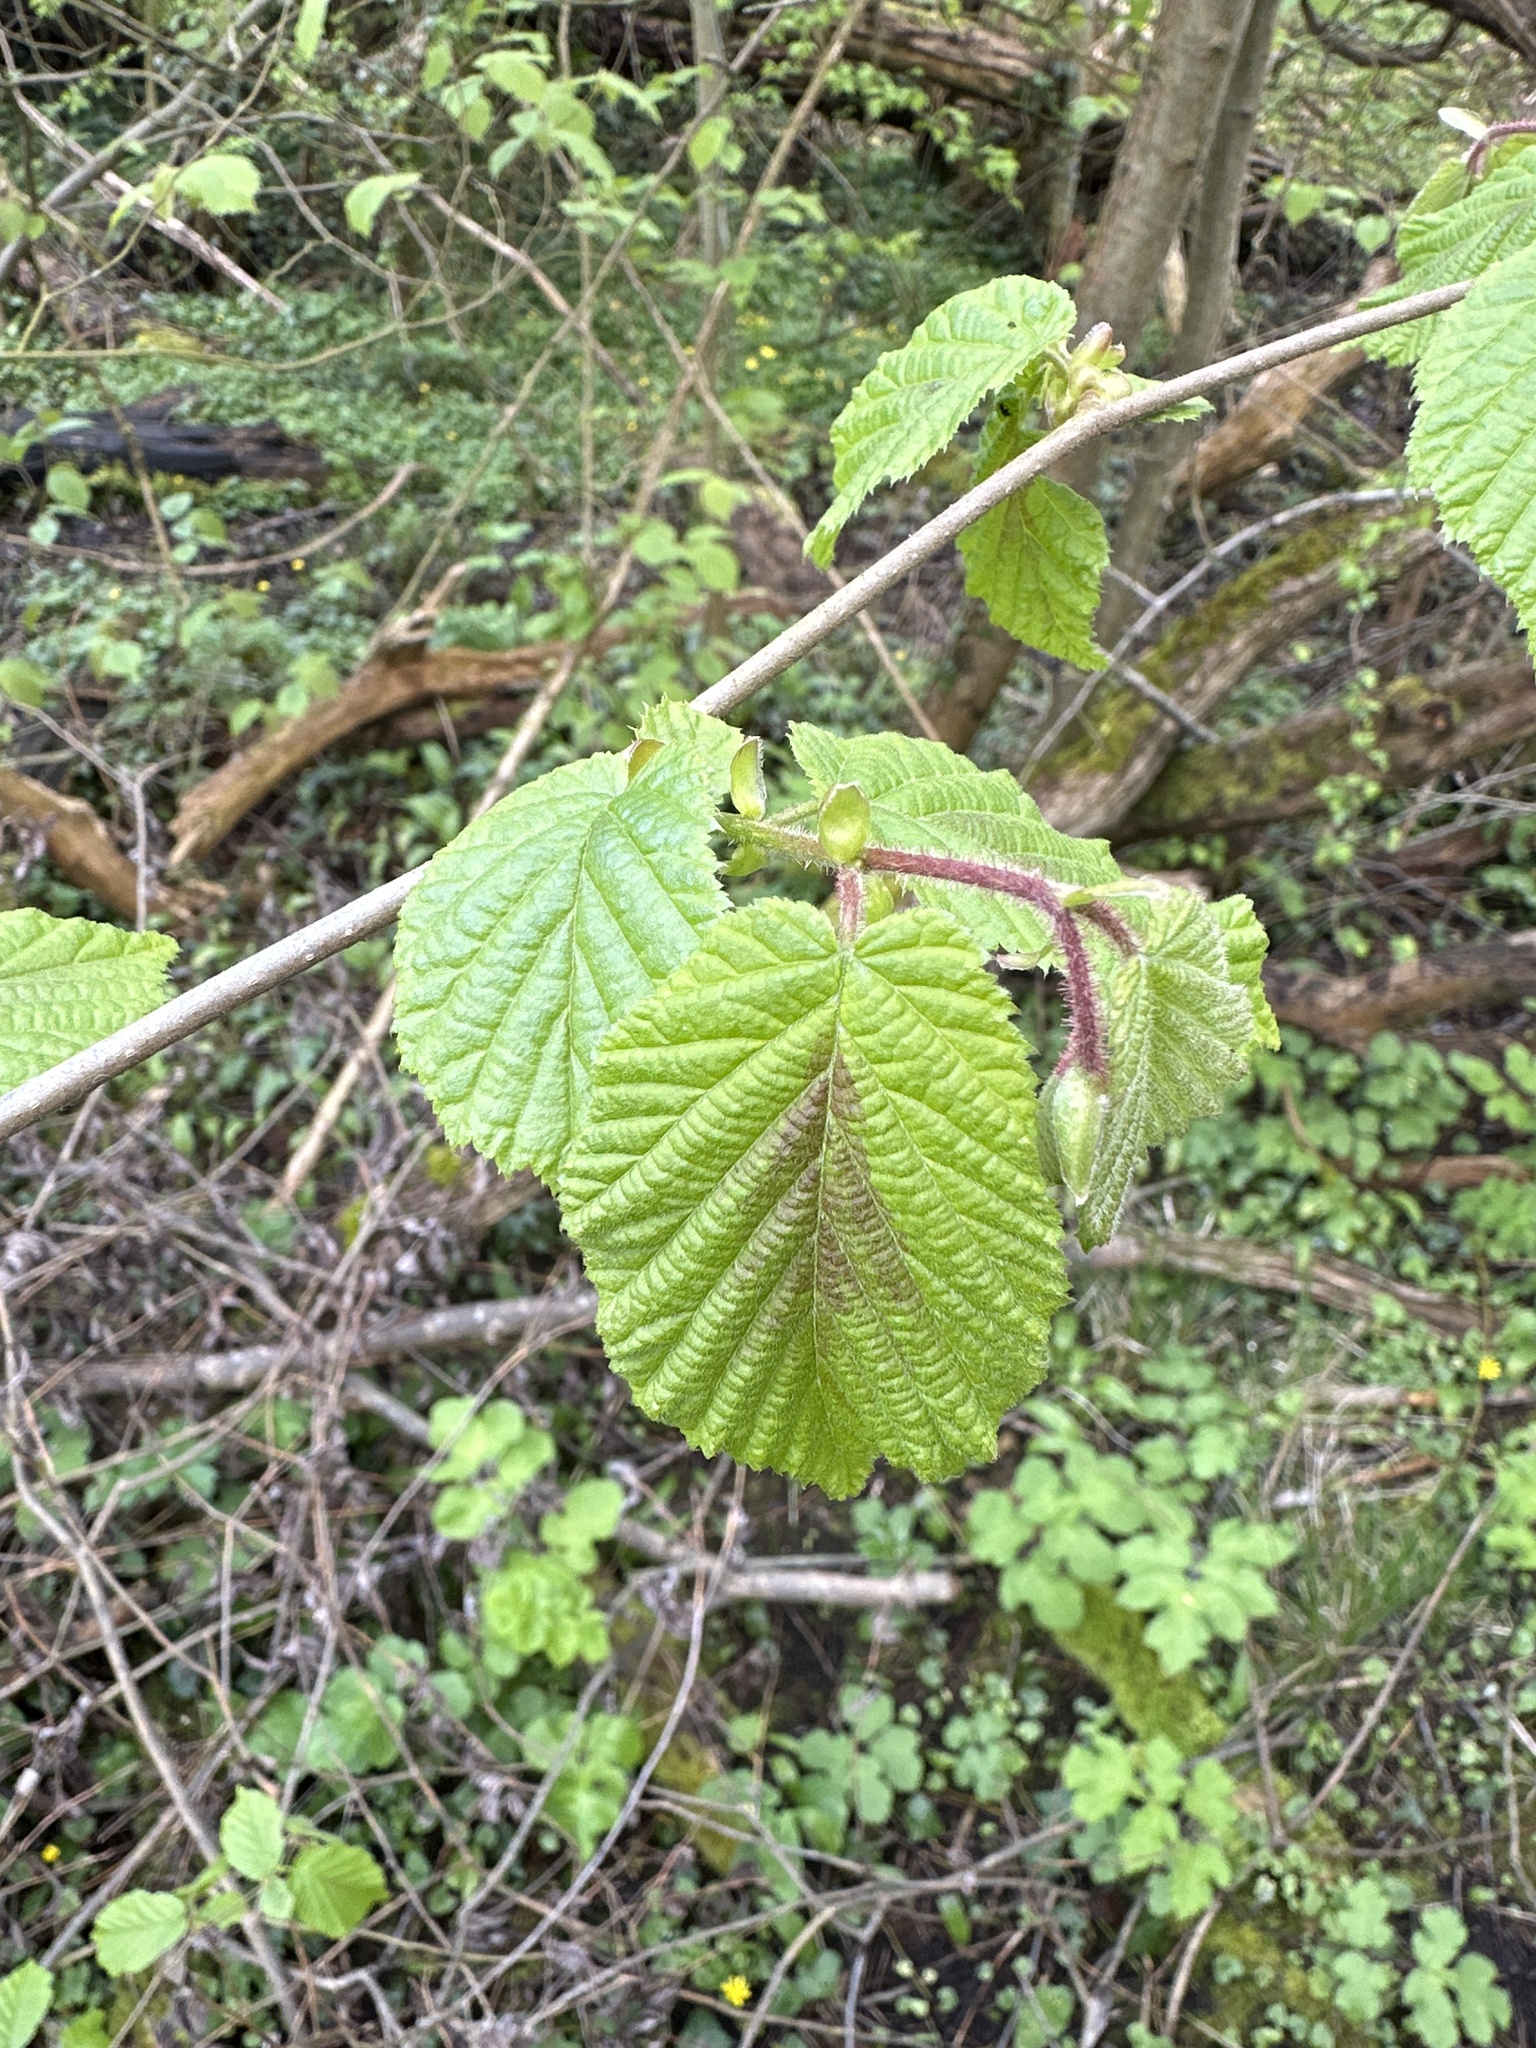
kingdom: Plantae
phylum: Tracheophyta
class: Magnoliopsida
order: Fagales
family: Betulaceae
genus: Corylus
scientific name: Corylus avellana
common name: European hazel
